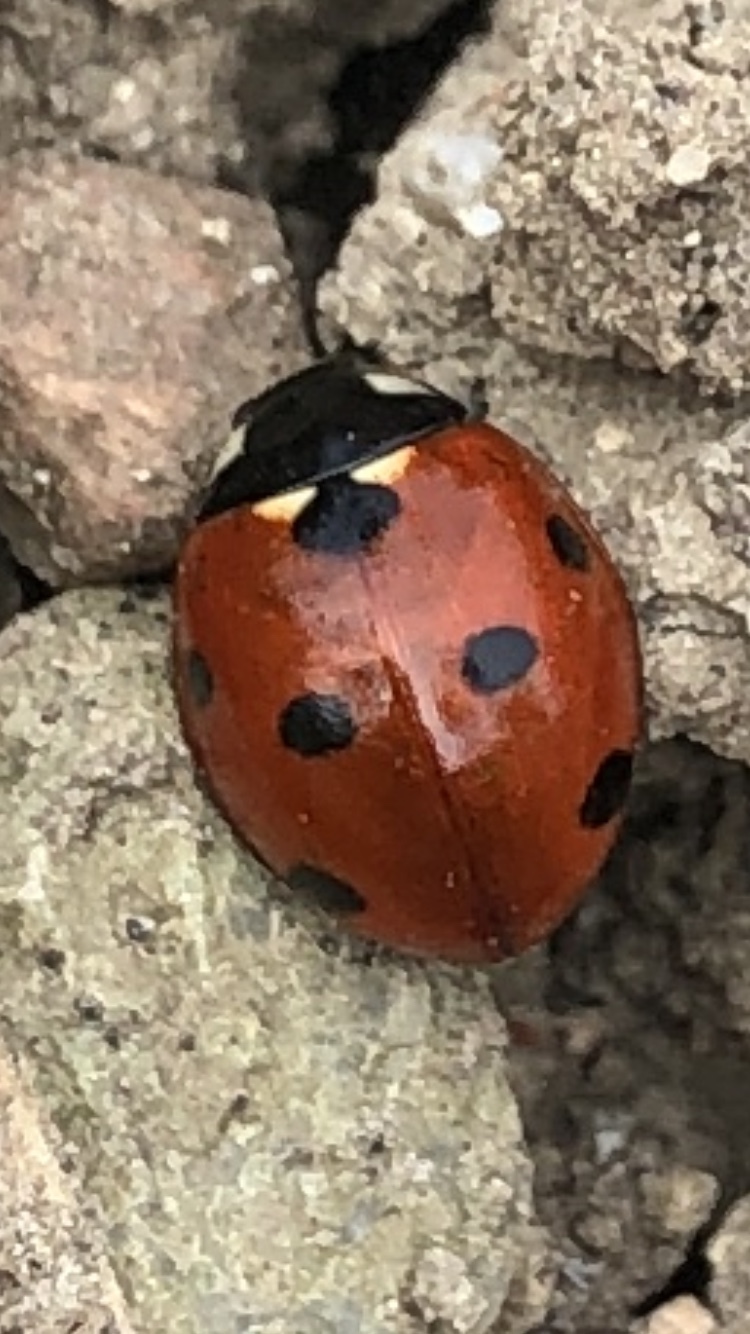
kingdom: Animalia
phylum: Arthropoda
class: Insecta
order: Coleoptera
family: Coccinellidae
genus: Coccinella
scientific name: Coccinella septempunctata
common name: Sevenspotted lady beetle
